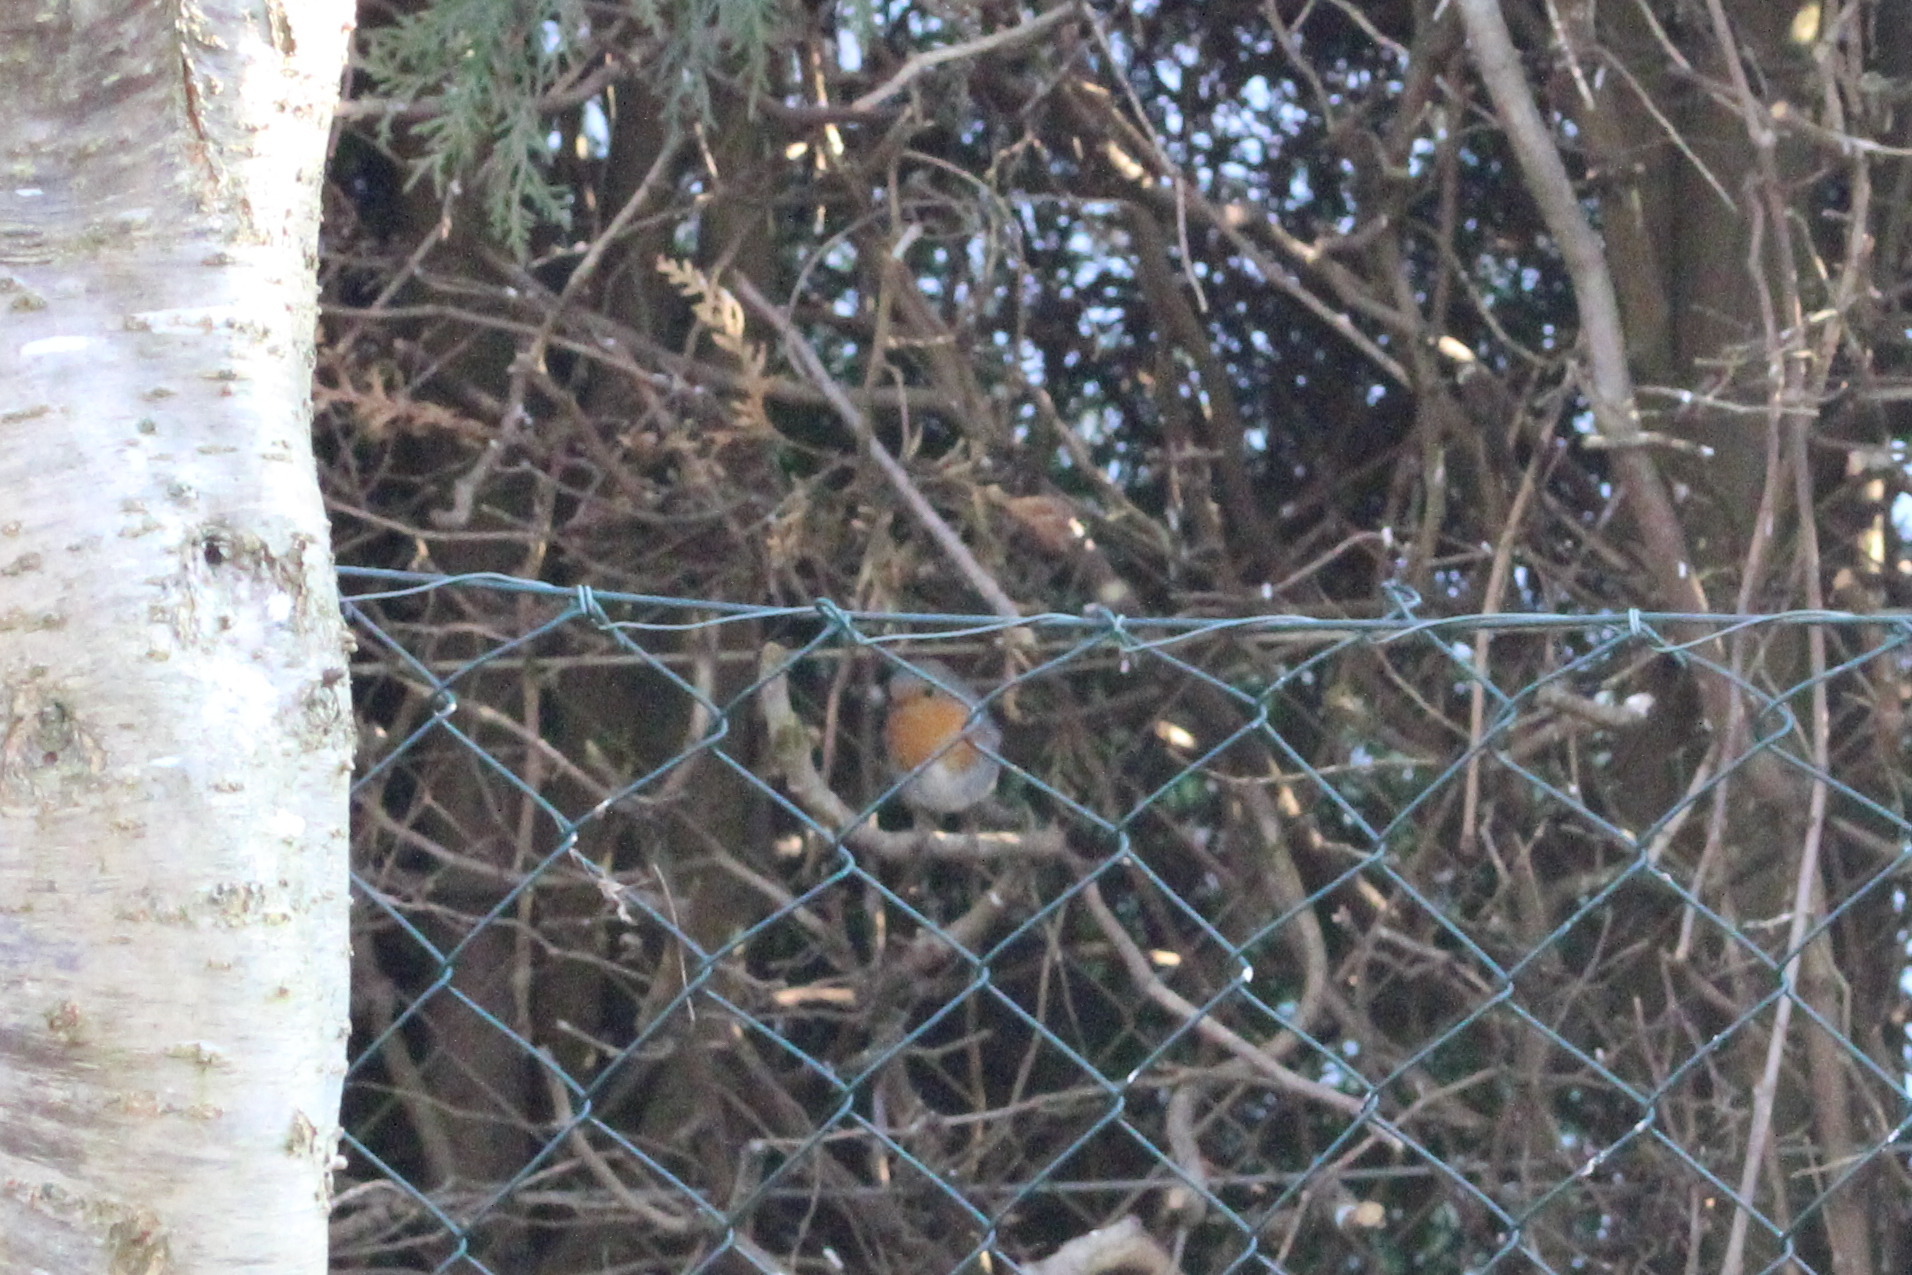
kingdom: Animalia
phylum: Chordata
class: Aves
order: Passeriformes
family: Muscicapidae
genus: Erithacus
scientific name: Erithacus rubecula
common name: European robin
